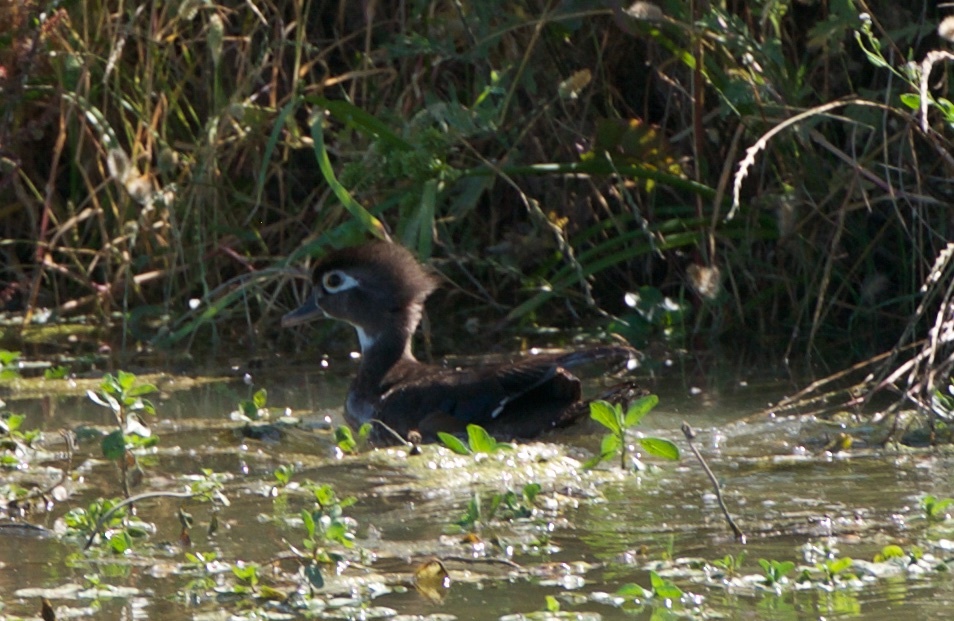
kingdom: Animalia
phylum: Chordata
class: Aves
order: Anseriformes
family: Anatidae
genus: Aix
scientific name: Aix sponsa
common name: Wood duck
